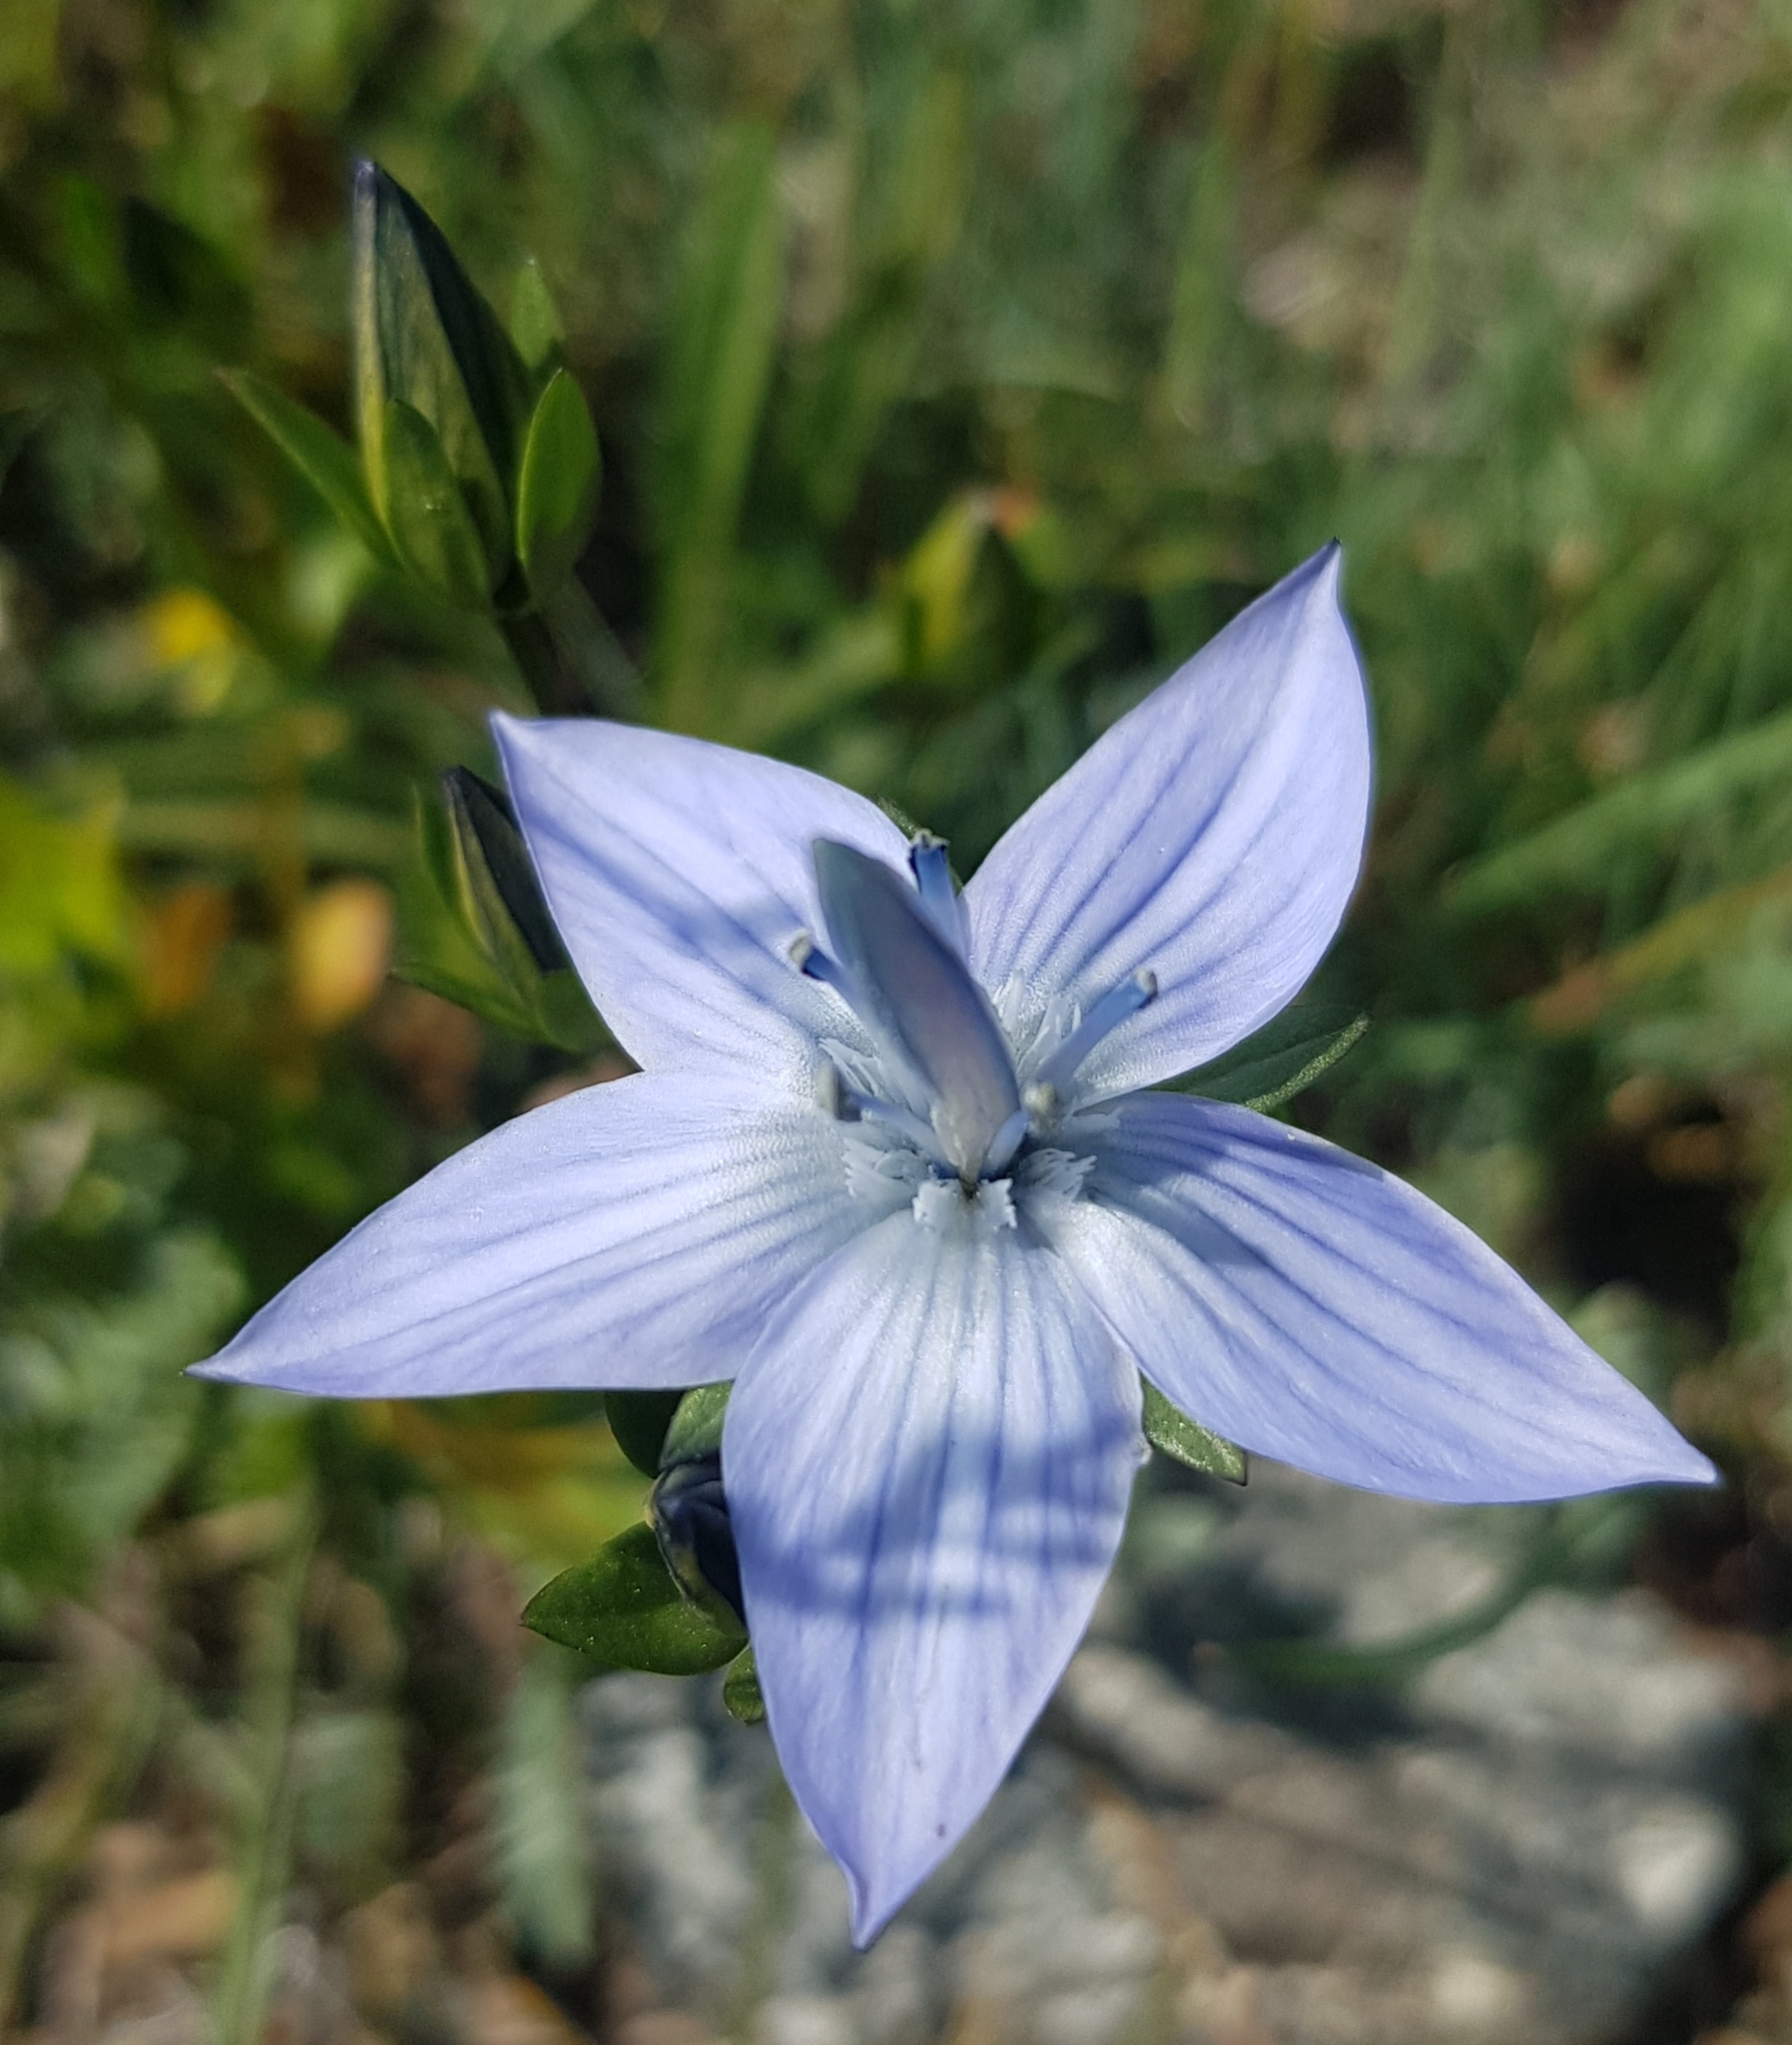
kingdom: Plantae
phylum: Tracheophyta
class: Magnoliopsida
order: Gentianales
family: Gentianaceae
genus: Lomatogonium
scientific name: Lomatogonium carinthiacum
